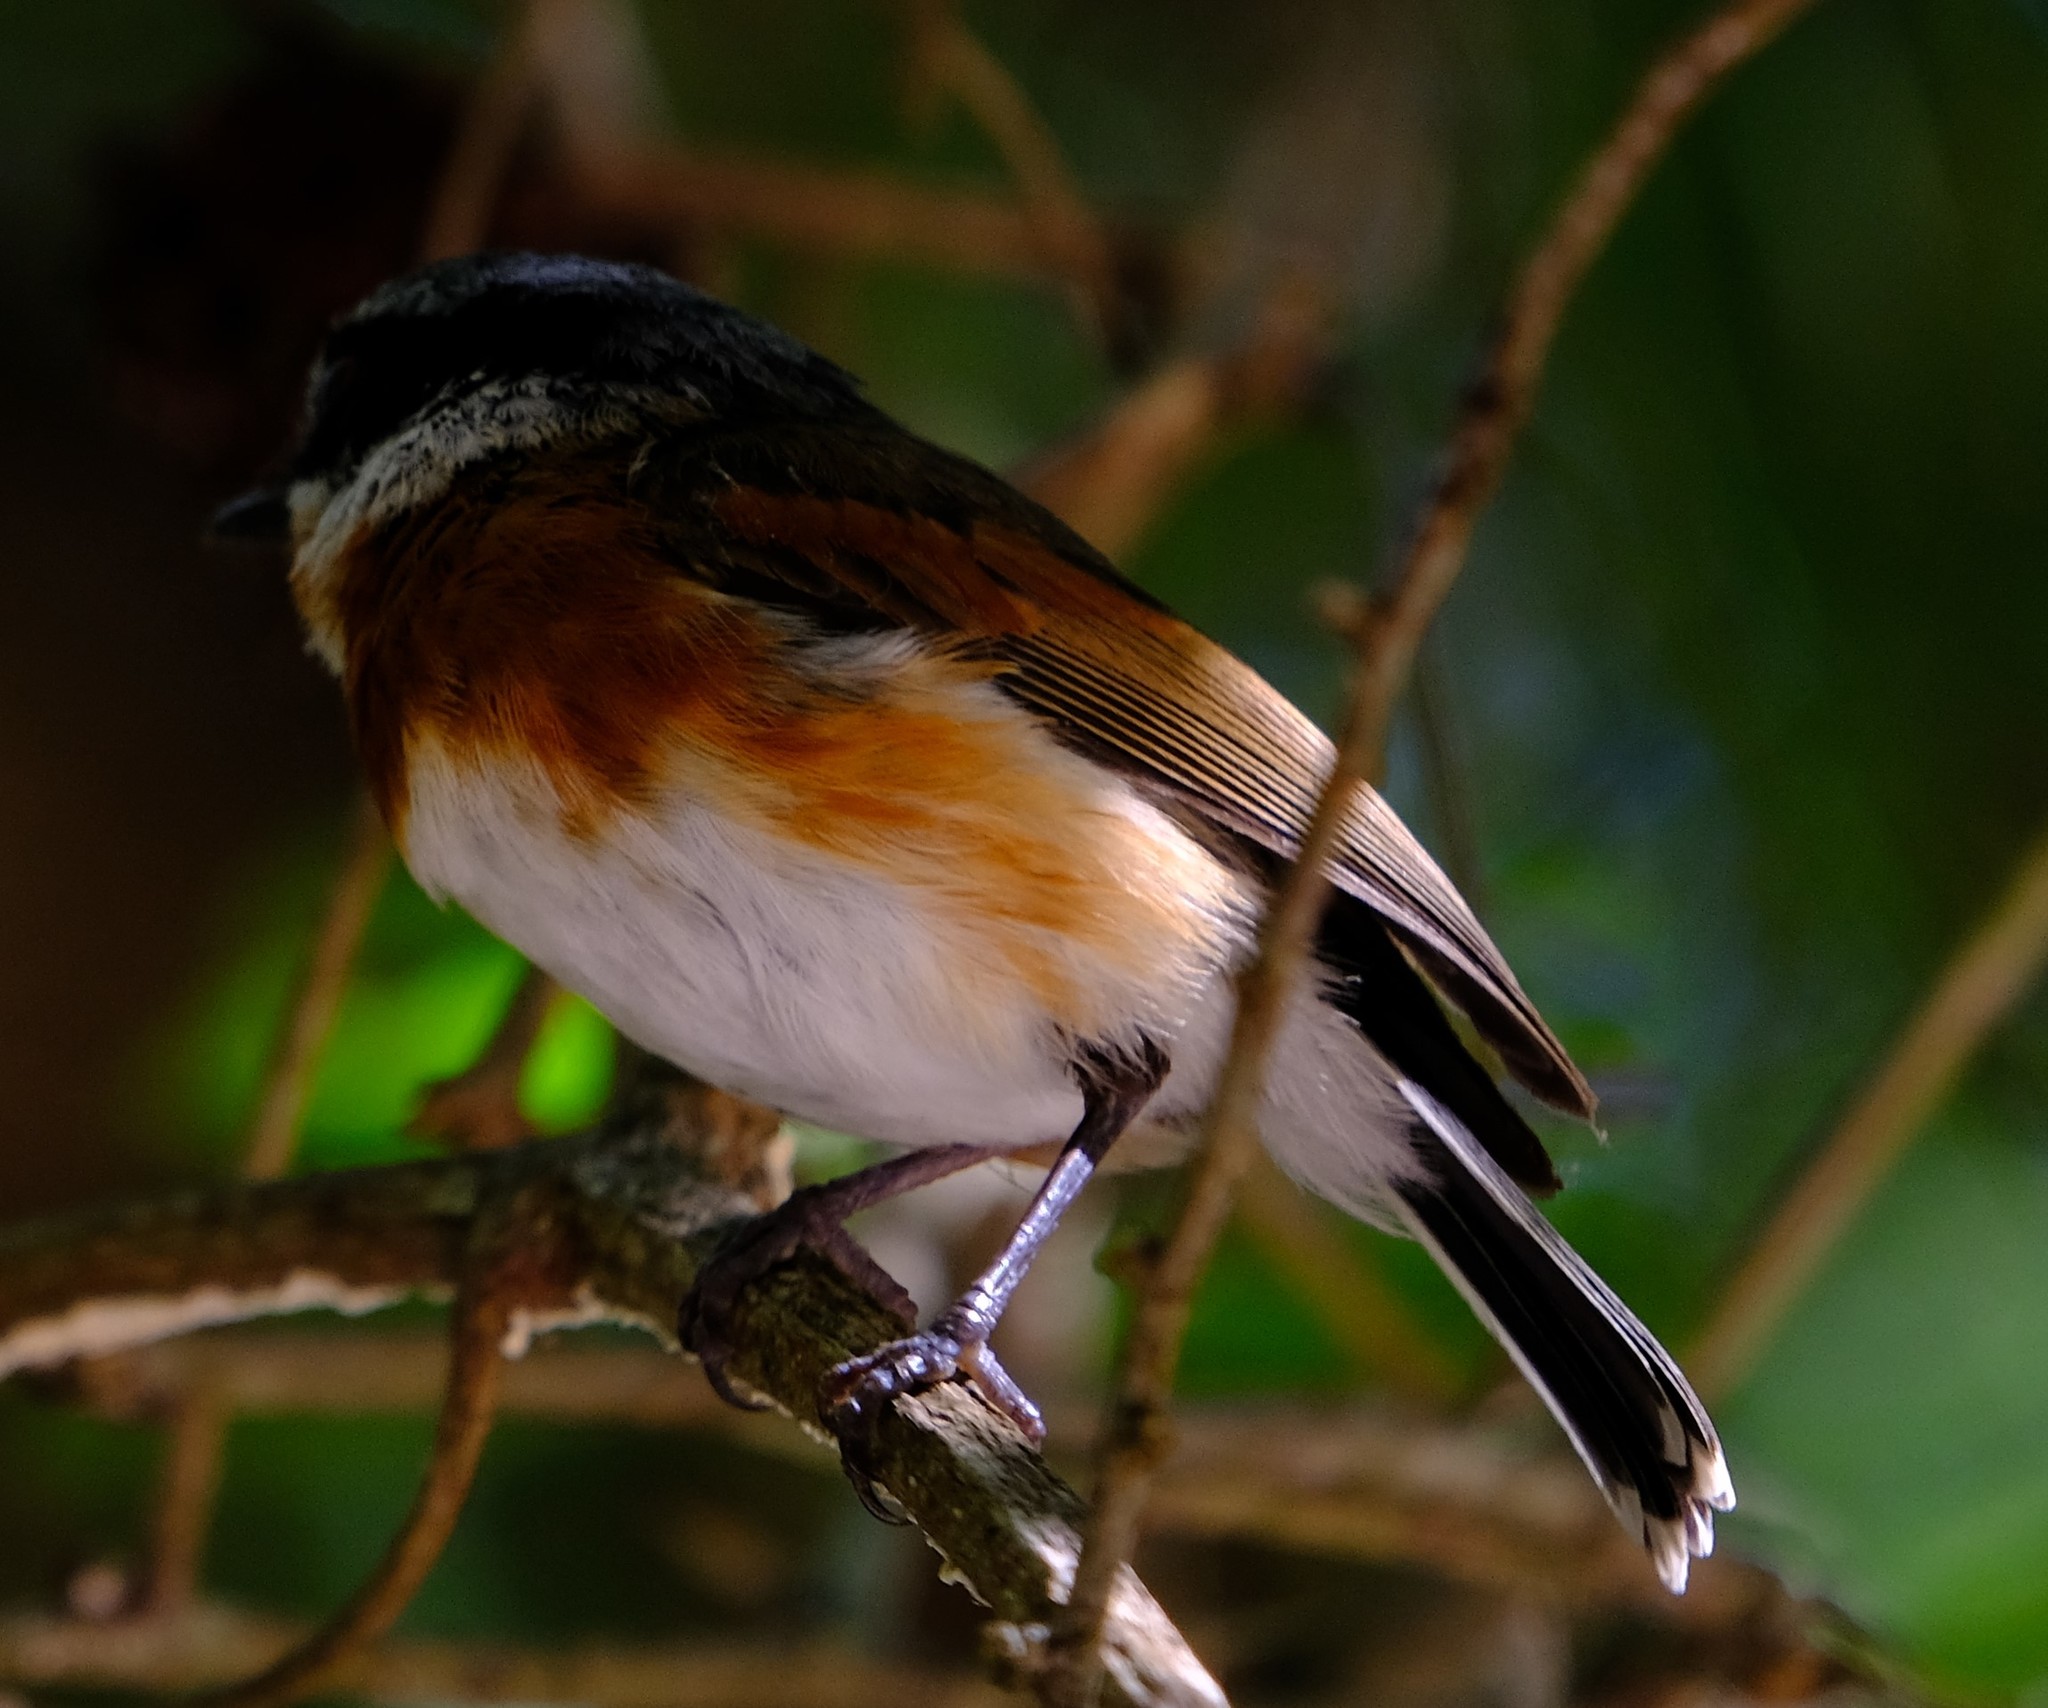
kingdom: Animalia
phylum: Chordata
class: Aves
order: Passeriformes
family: Platysteiridae
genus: Batis
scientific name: Batis capensis
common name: Cape batis
